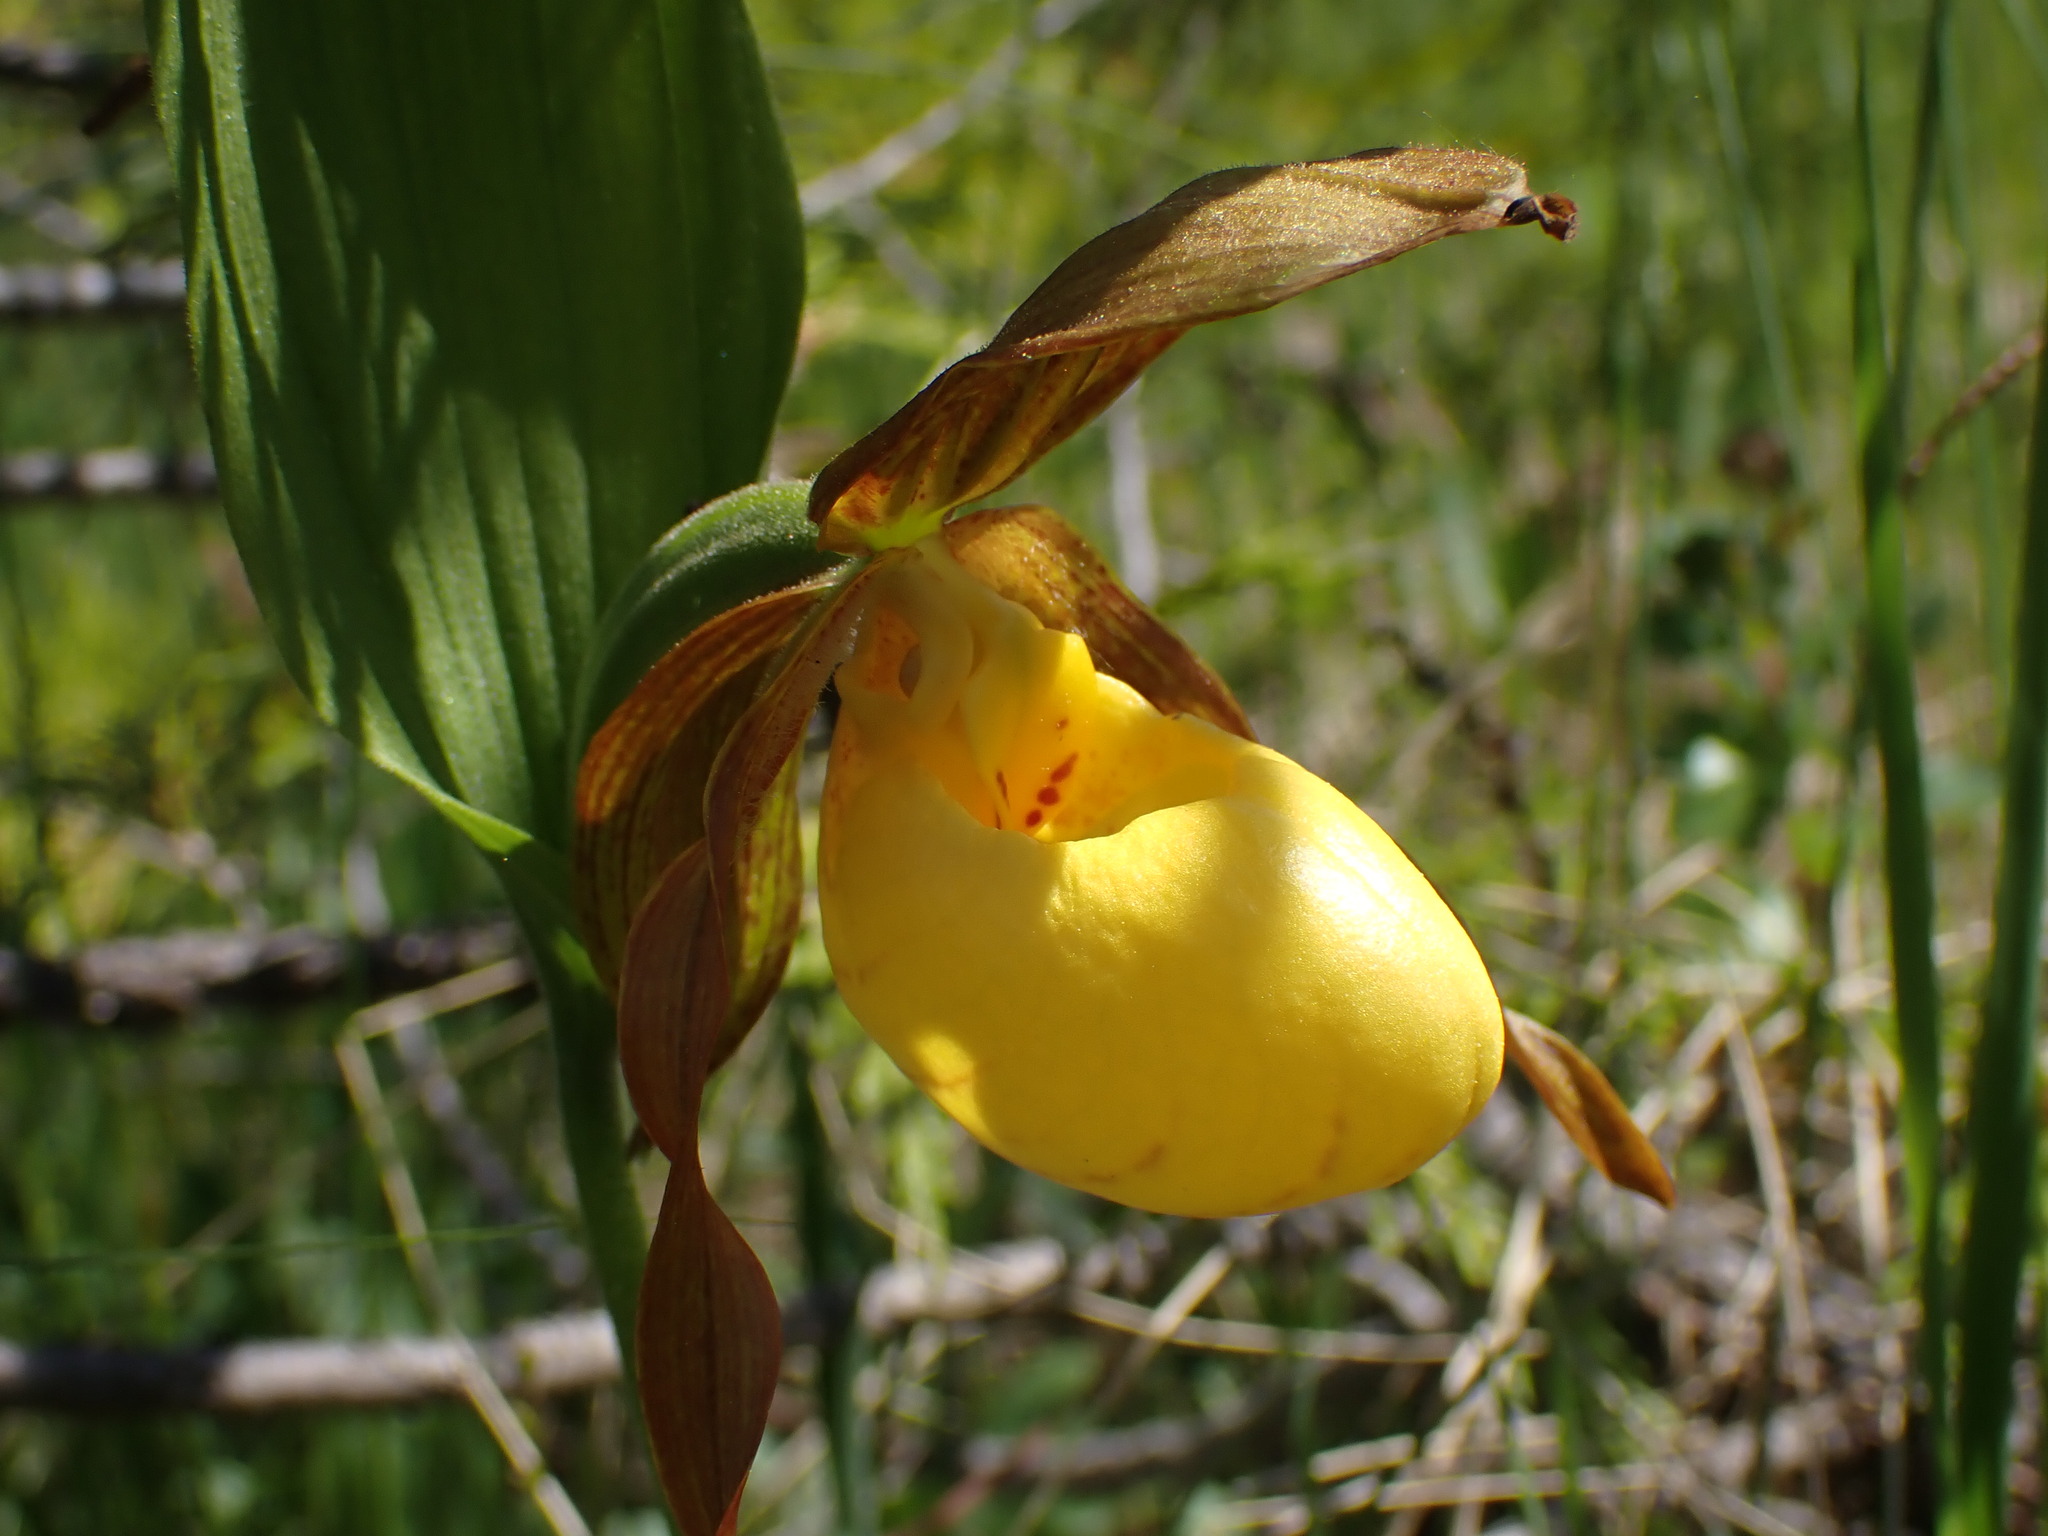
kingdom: Plantae
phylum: Tracheophyta
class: Liliopsida
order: Asparagales
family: Orchidaceae
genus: Cypripedium
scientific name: Cypripedium parviflorum
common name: American yellow lady's-slipper
